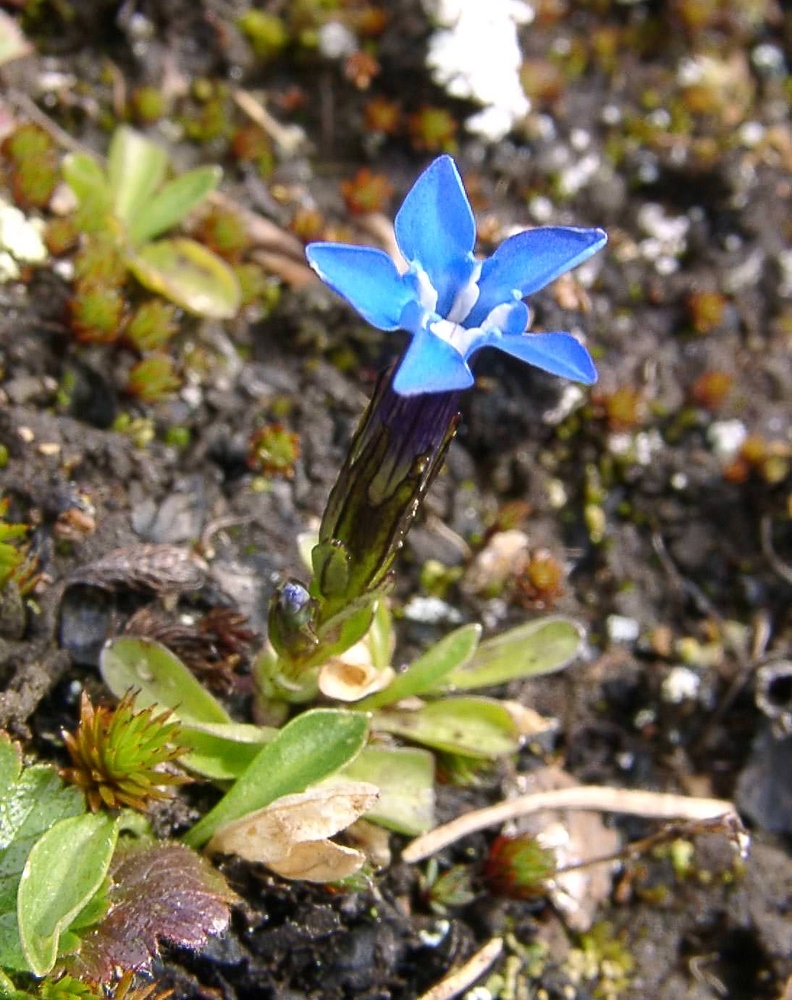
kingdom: Plantae
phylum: Tracheophyta
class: Magnoliopsida
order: Gentianales
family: Gentianaceae
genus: Gentiana
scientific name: Gentiana nivalis
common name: Alpine gentian
